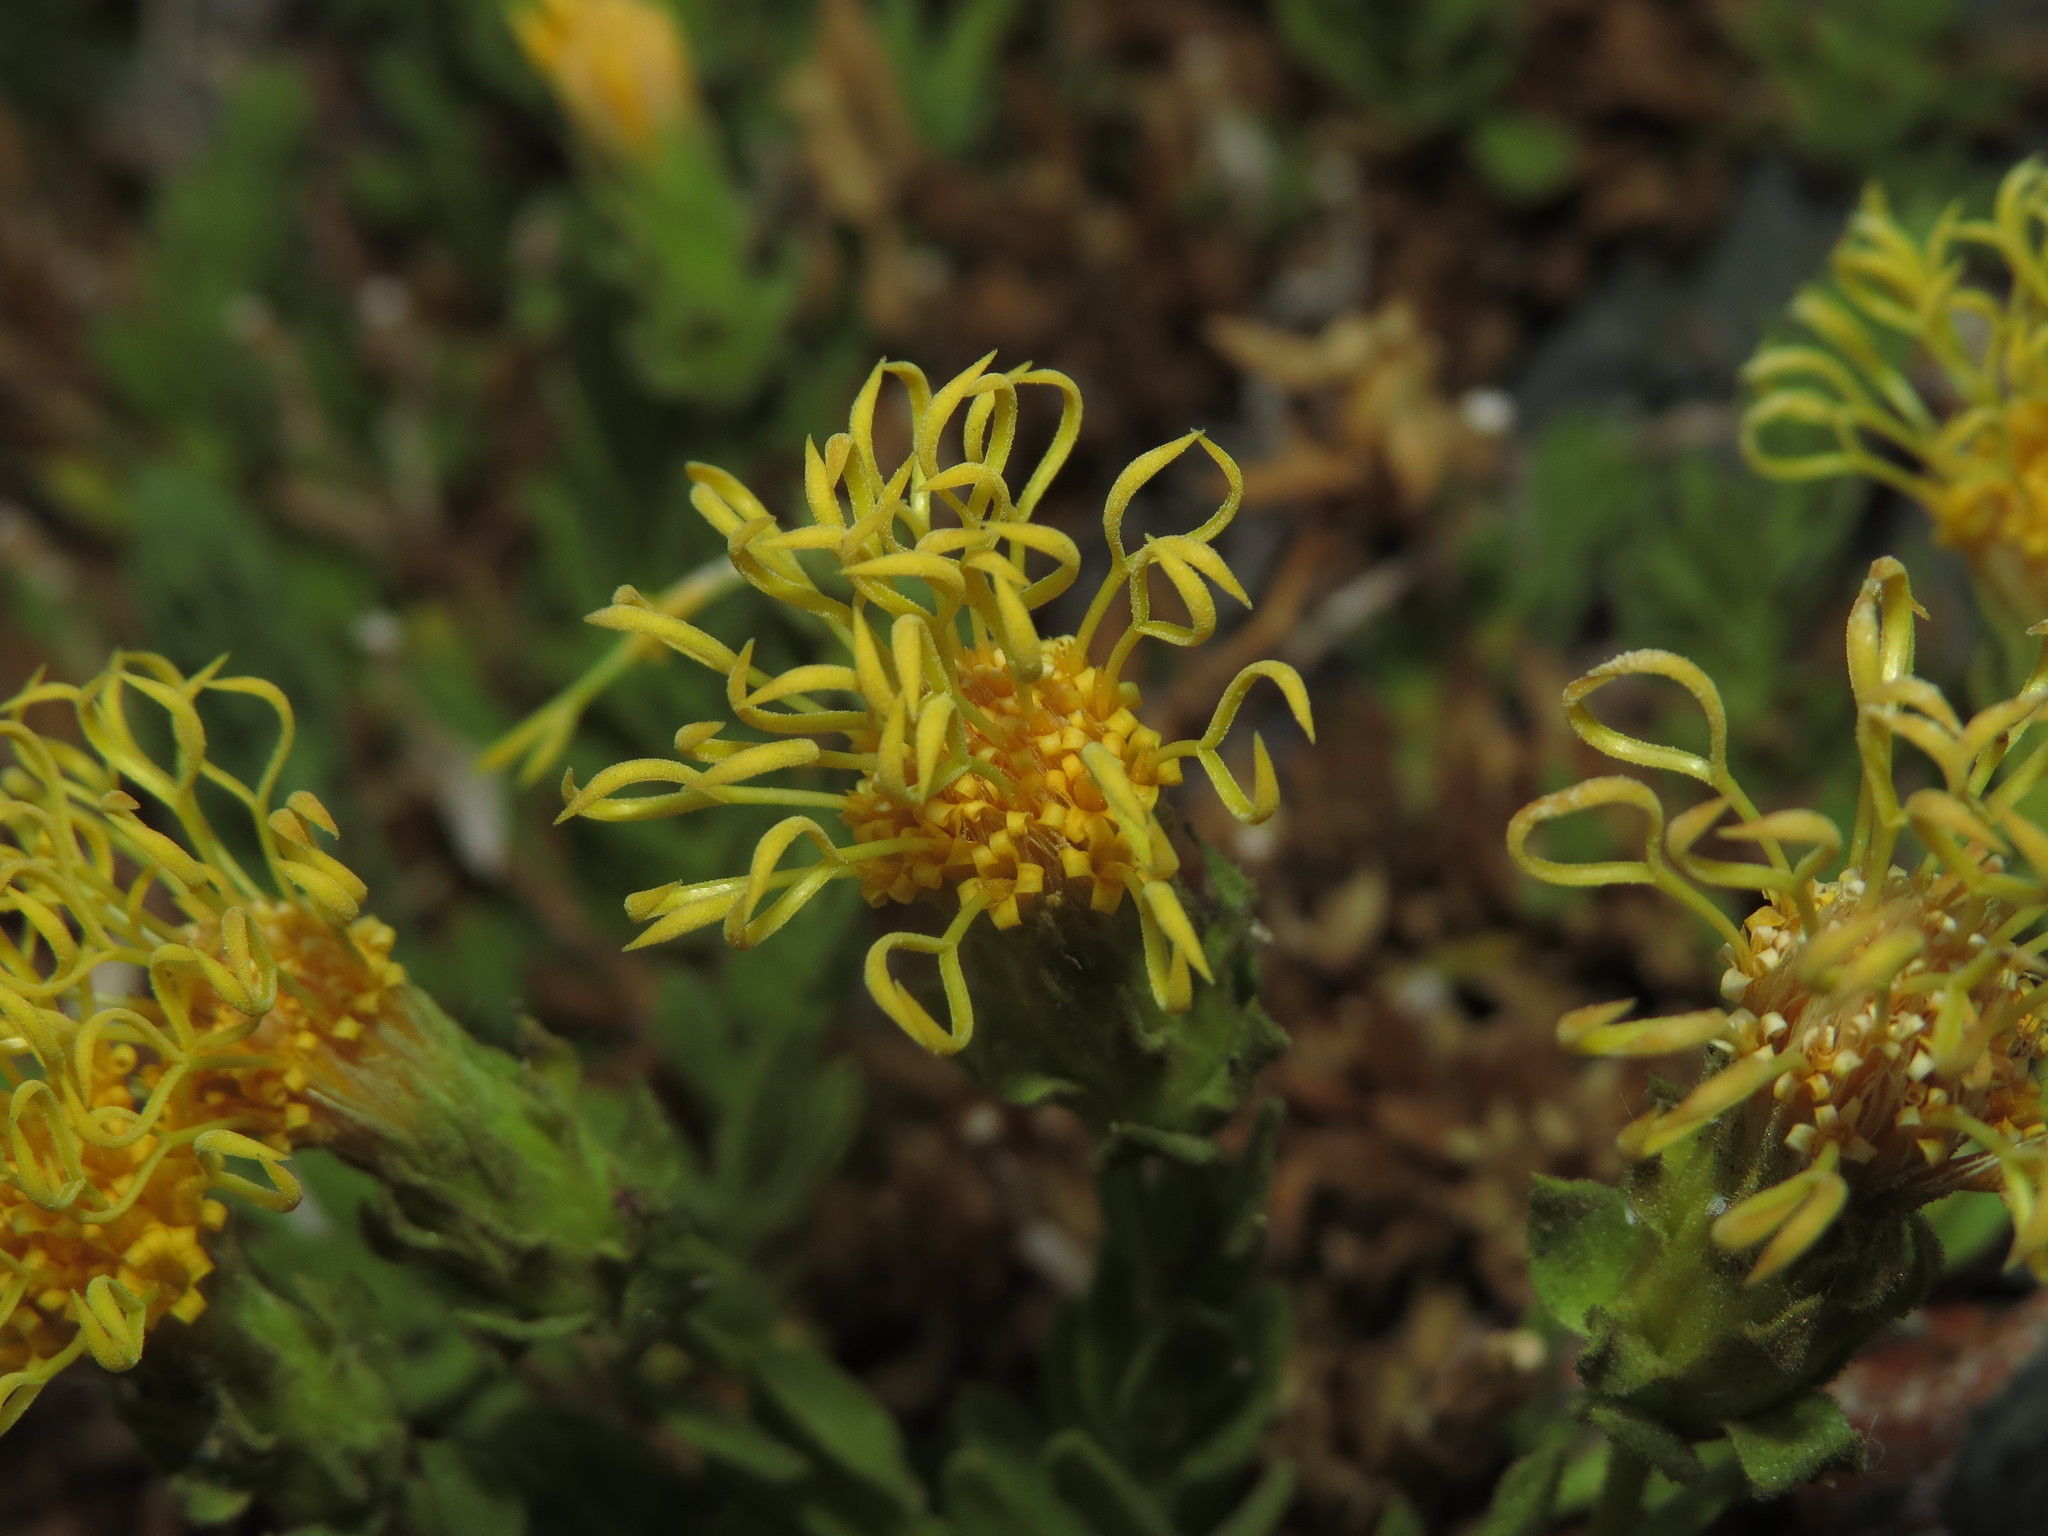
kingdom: Plantae
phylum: Tracheophyta
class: Magnoliopsida
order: Asterales
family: Asteraceae
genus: Nardophyllum
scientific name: Nardophyllum genistoides
